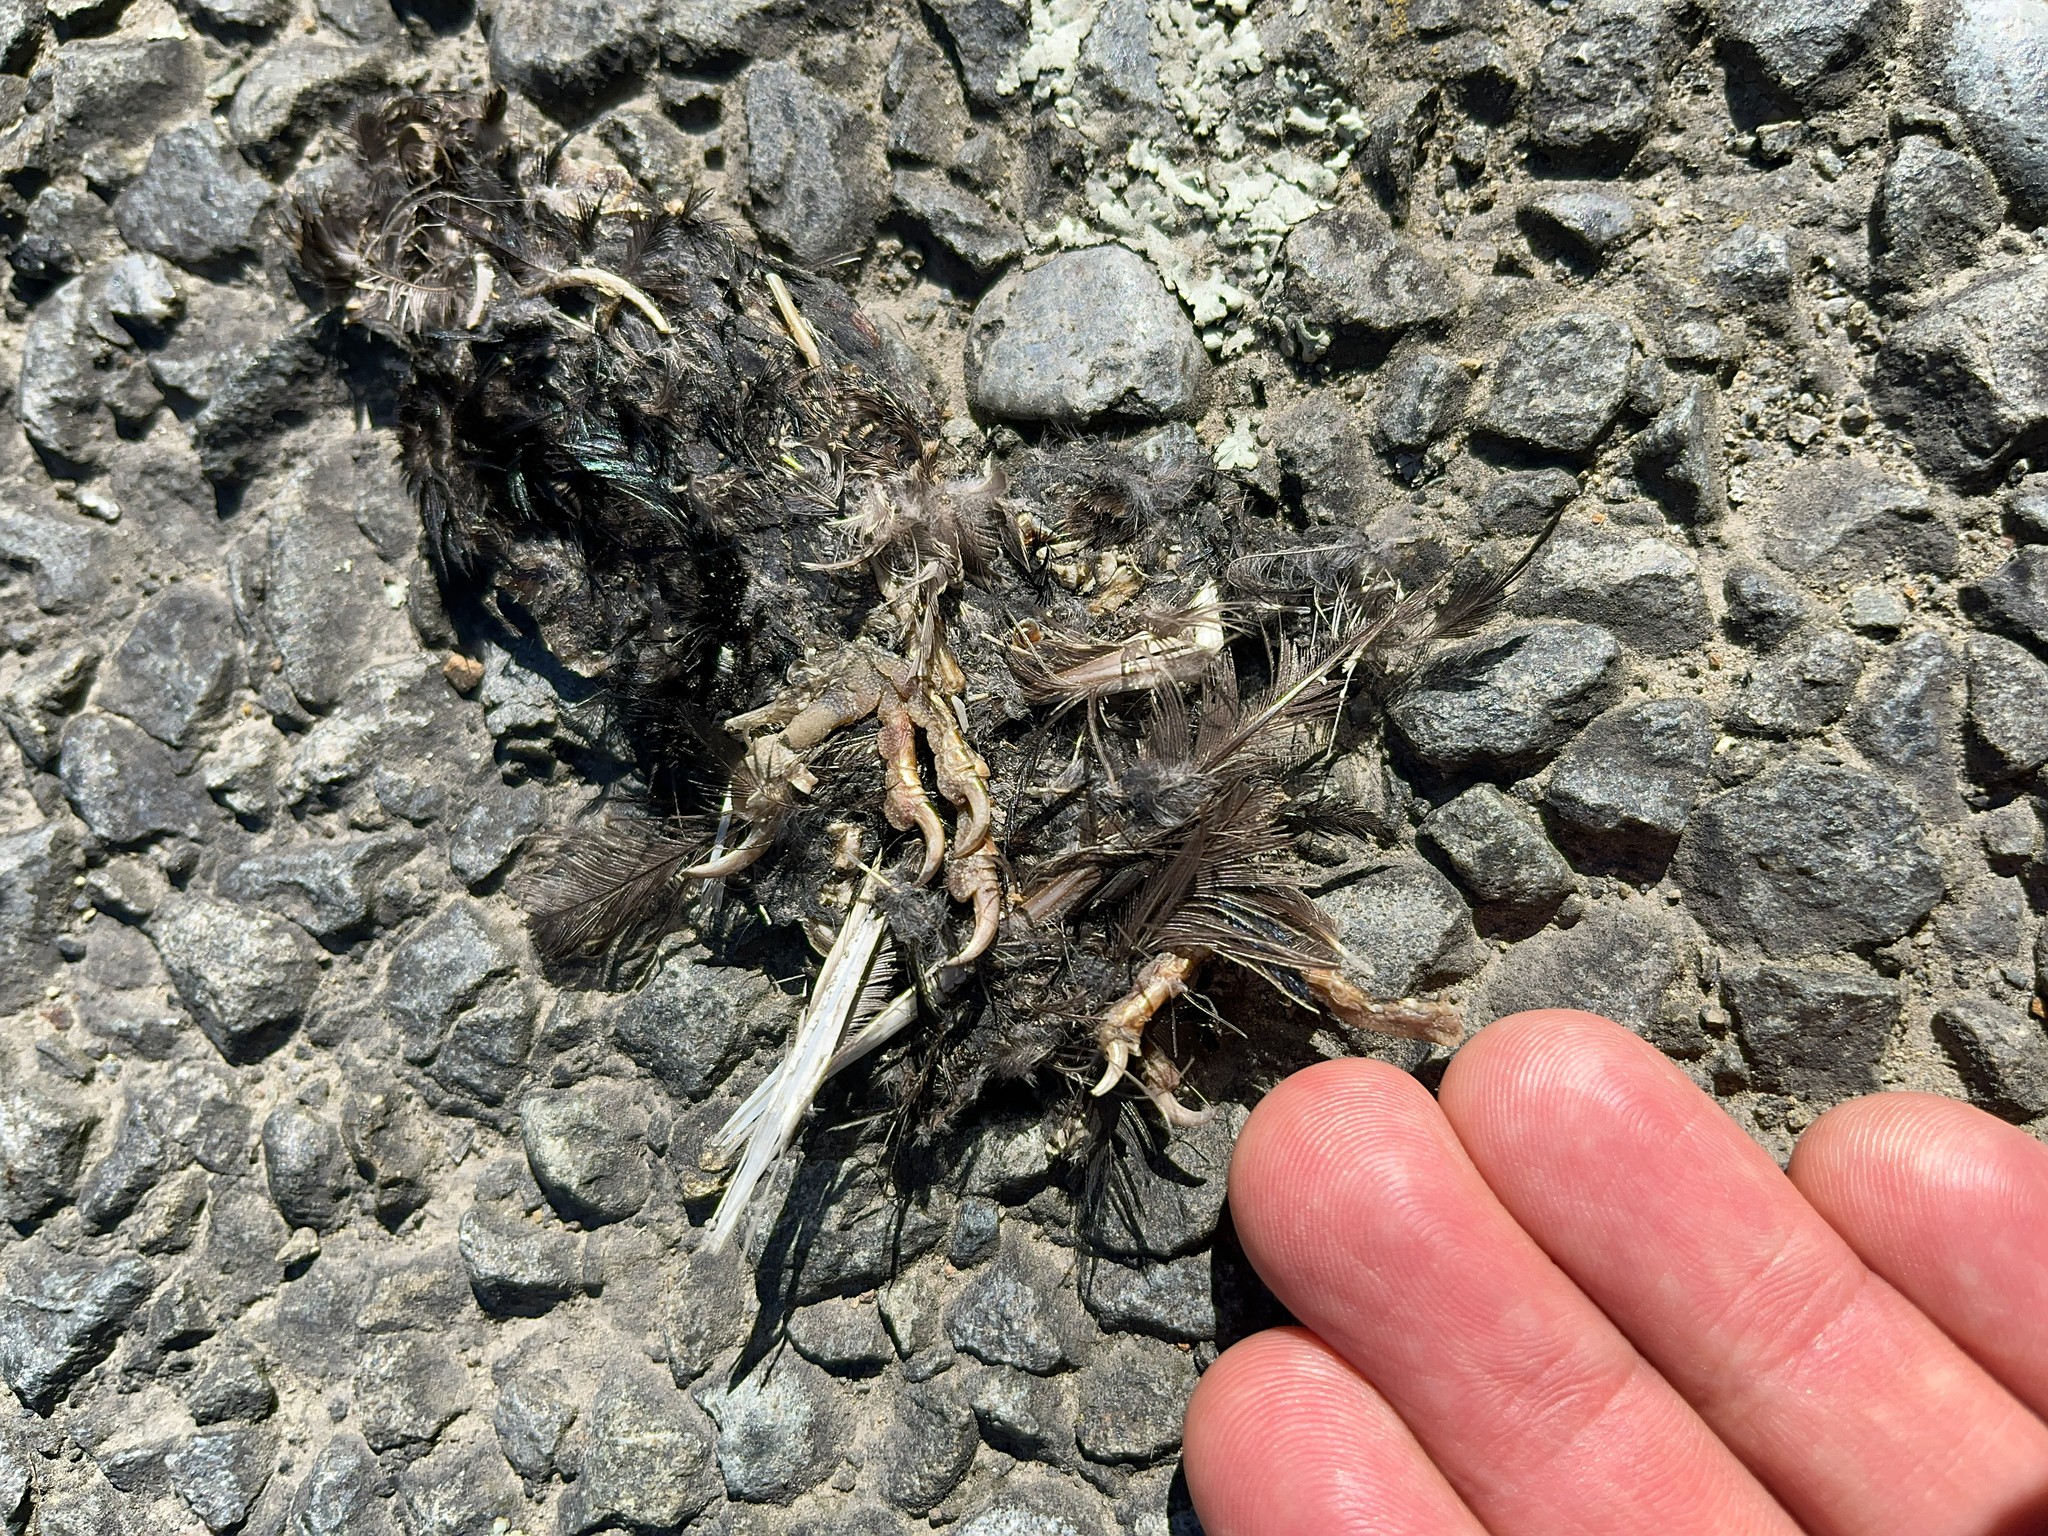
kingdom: Animalia
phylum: Chordata
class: Aves
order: Passeriformes
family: Sturnidae
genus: Sturnus
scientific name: Sturnus vulgaris
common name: Common starling
